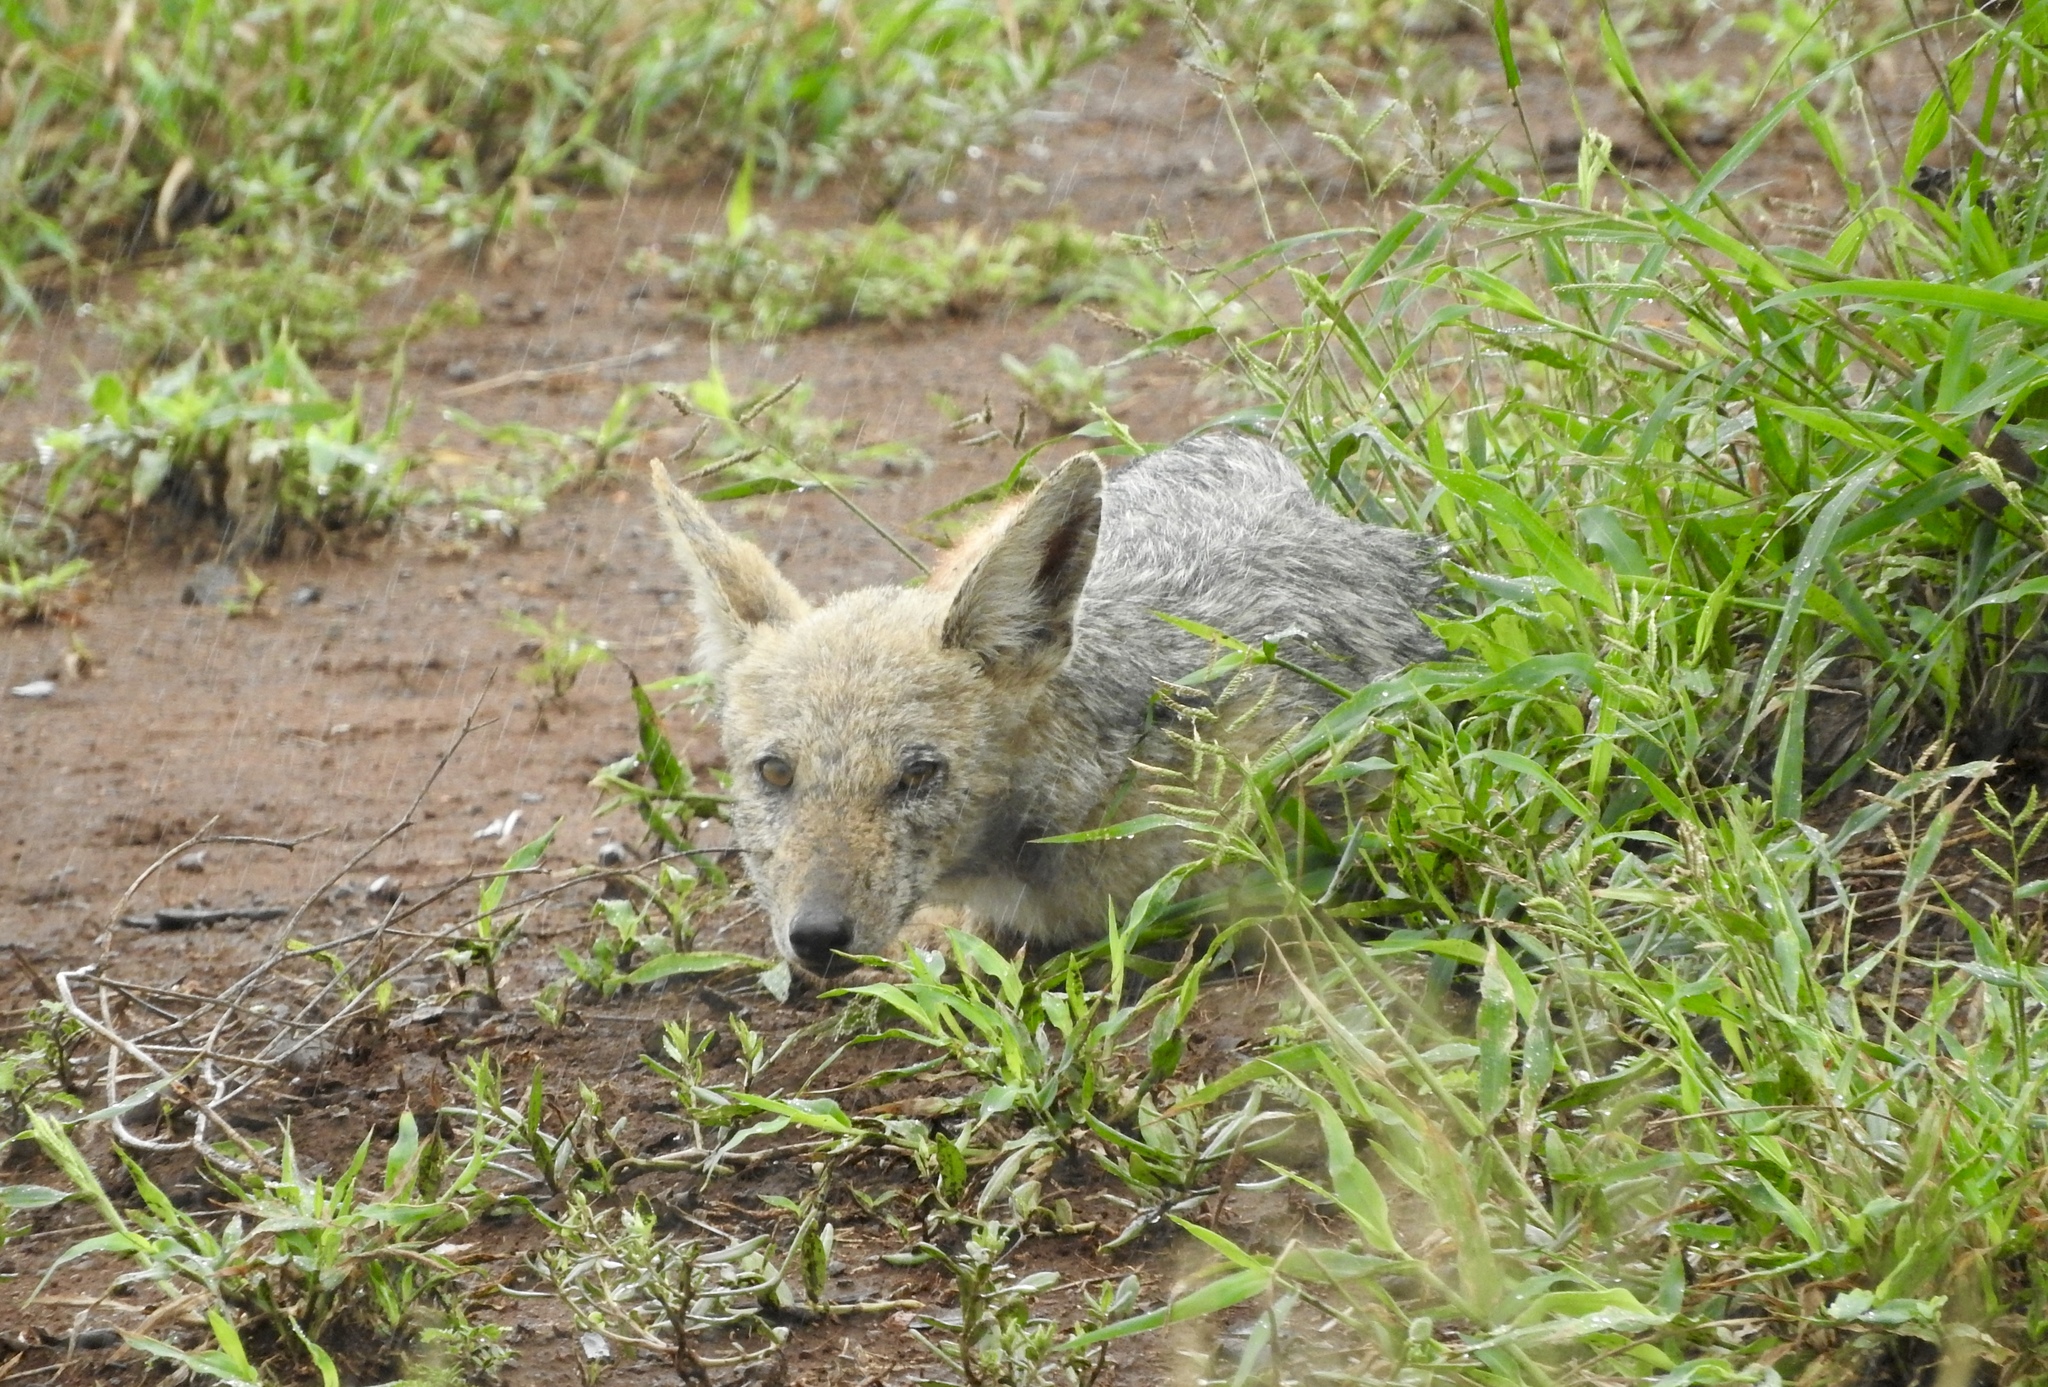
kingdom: Animalia
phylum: Chordata
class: Mammalia
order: Carnivora
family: Canidae
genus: Lupulella
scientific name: Lupulella
